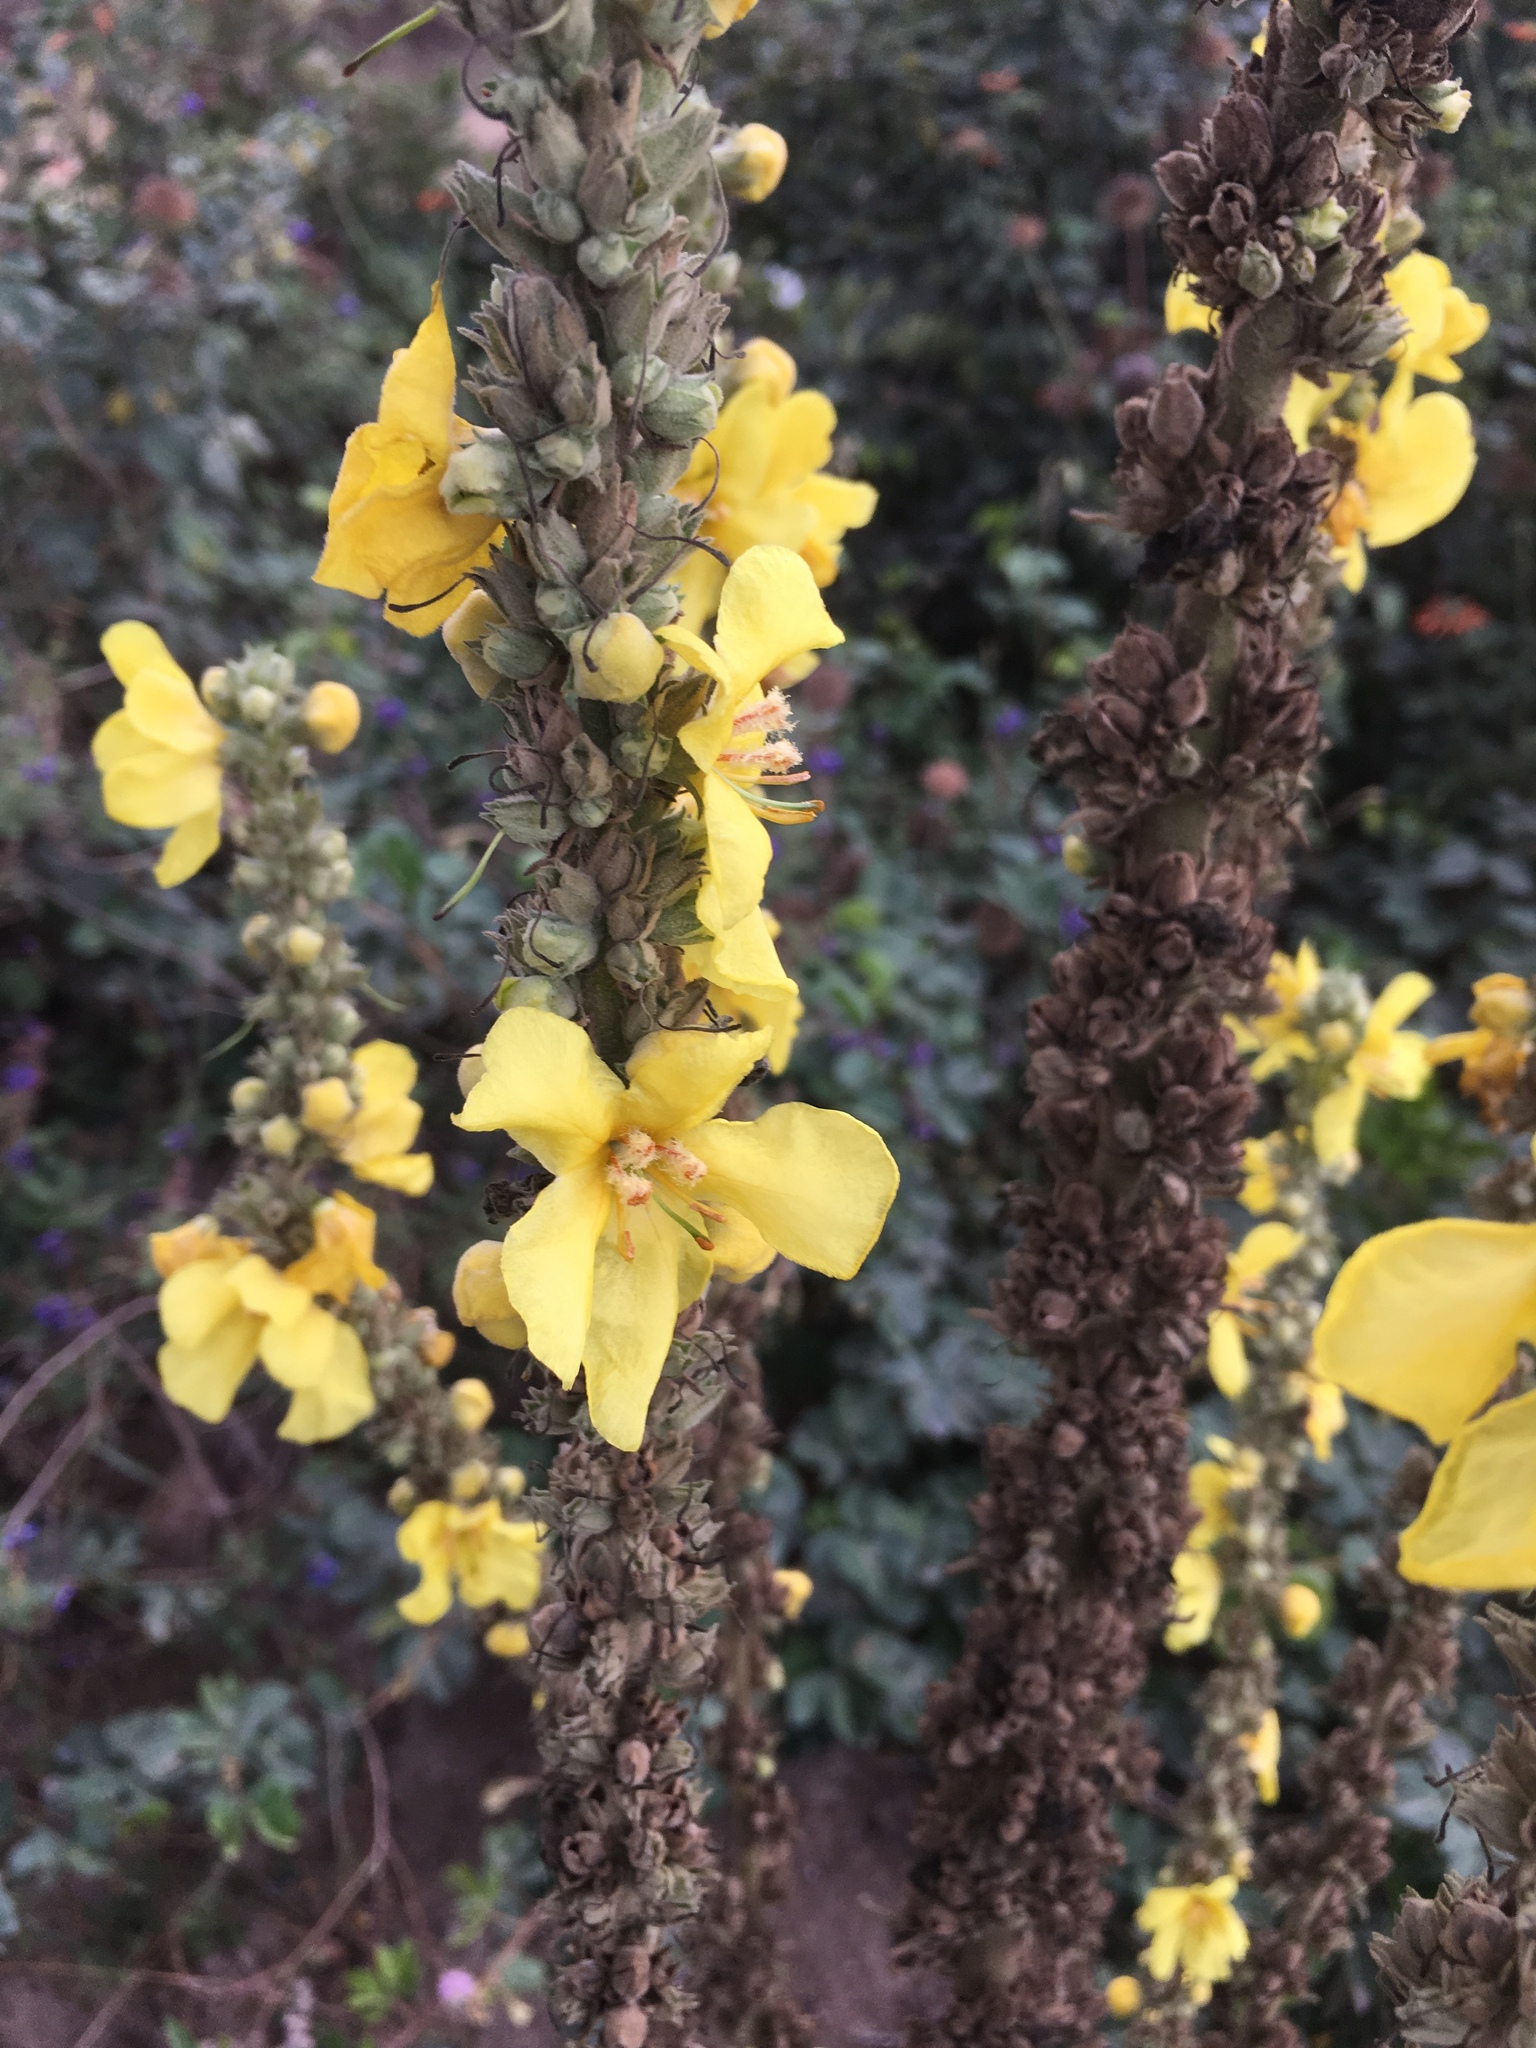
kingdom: Plantae
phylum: Tracheophyta
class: Magnoliopsida
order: Lamiales
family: Scrophulariaceae
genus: Verbascum
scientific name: Verbascum phlomoides
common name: Orange mullein
